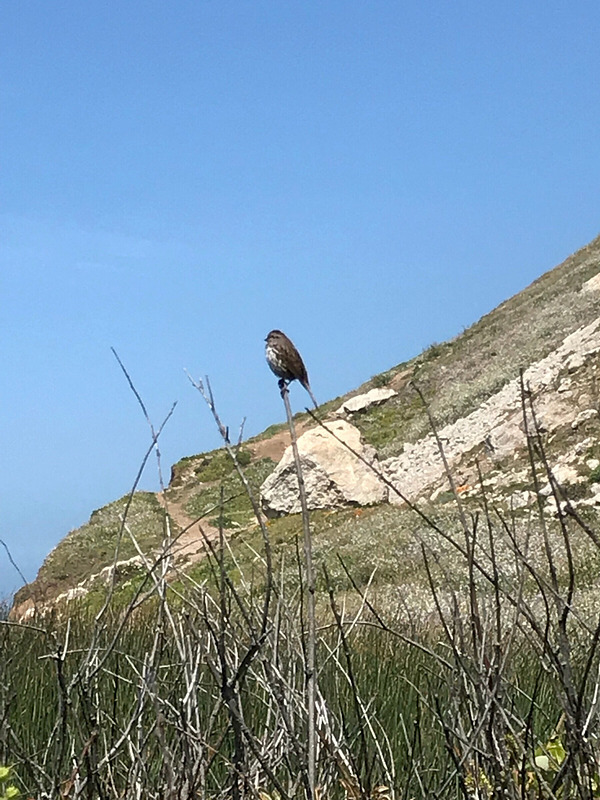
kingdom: Animalia
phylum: Chordata
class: Aves
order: Passeriformes
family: Passerellidae
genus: Melospiza
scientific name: Melospiza melodia
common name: Song sparrow
